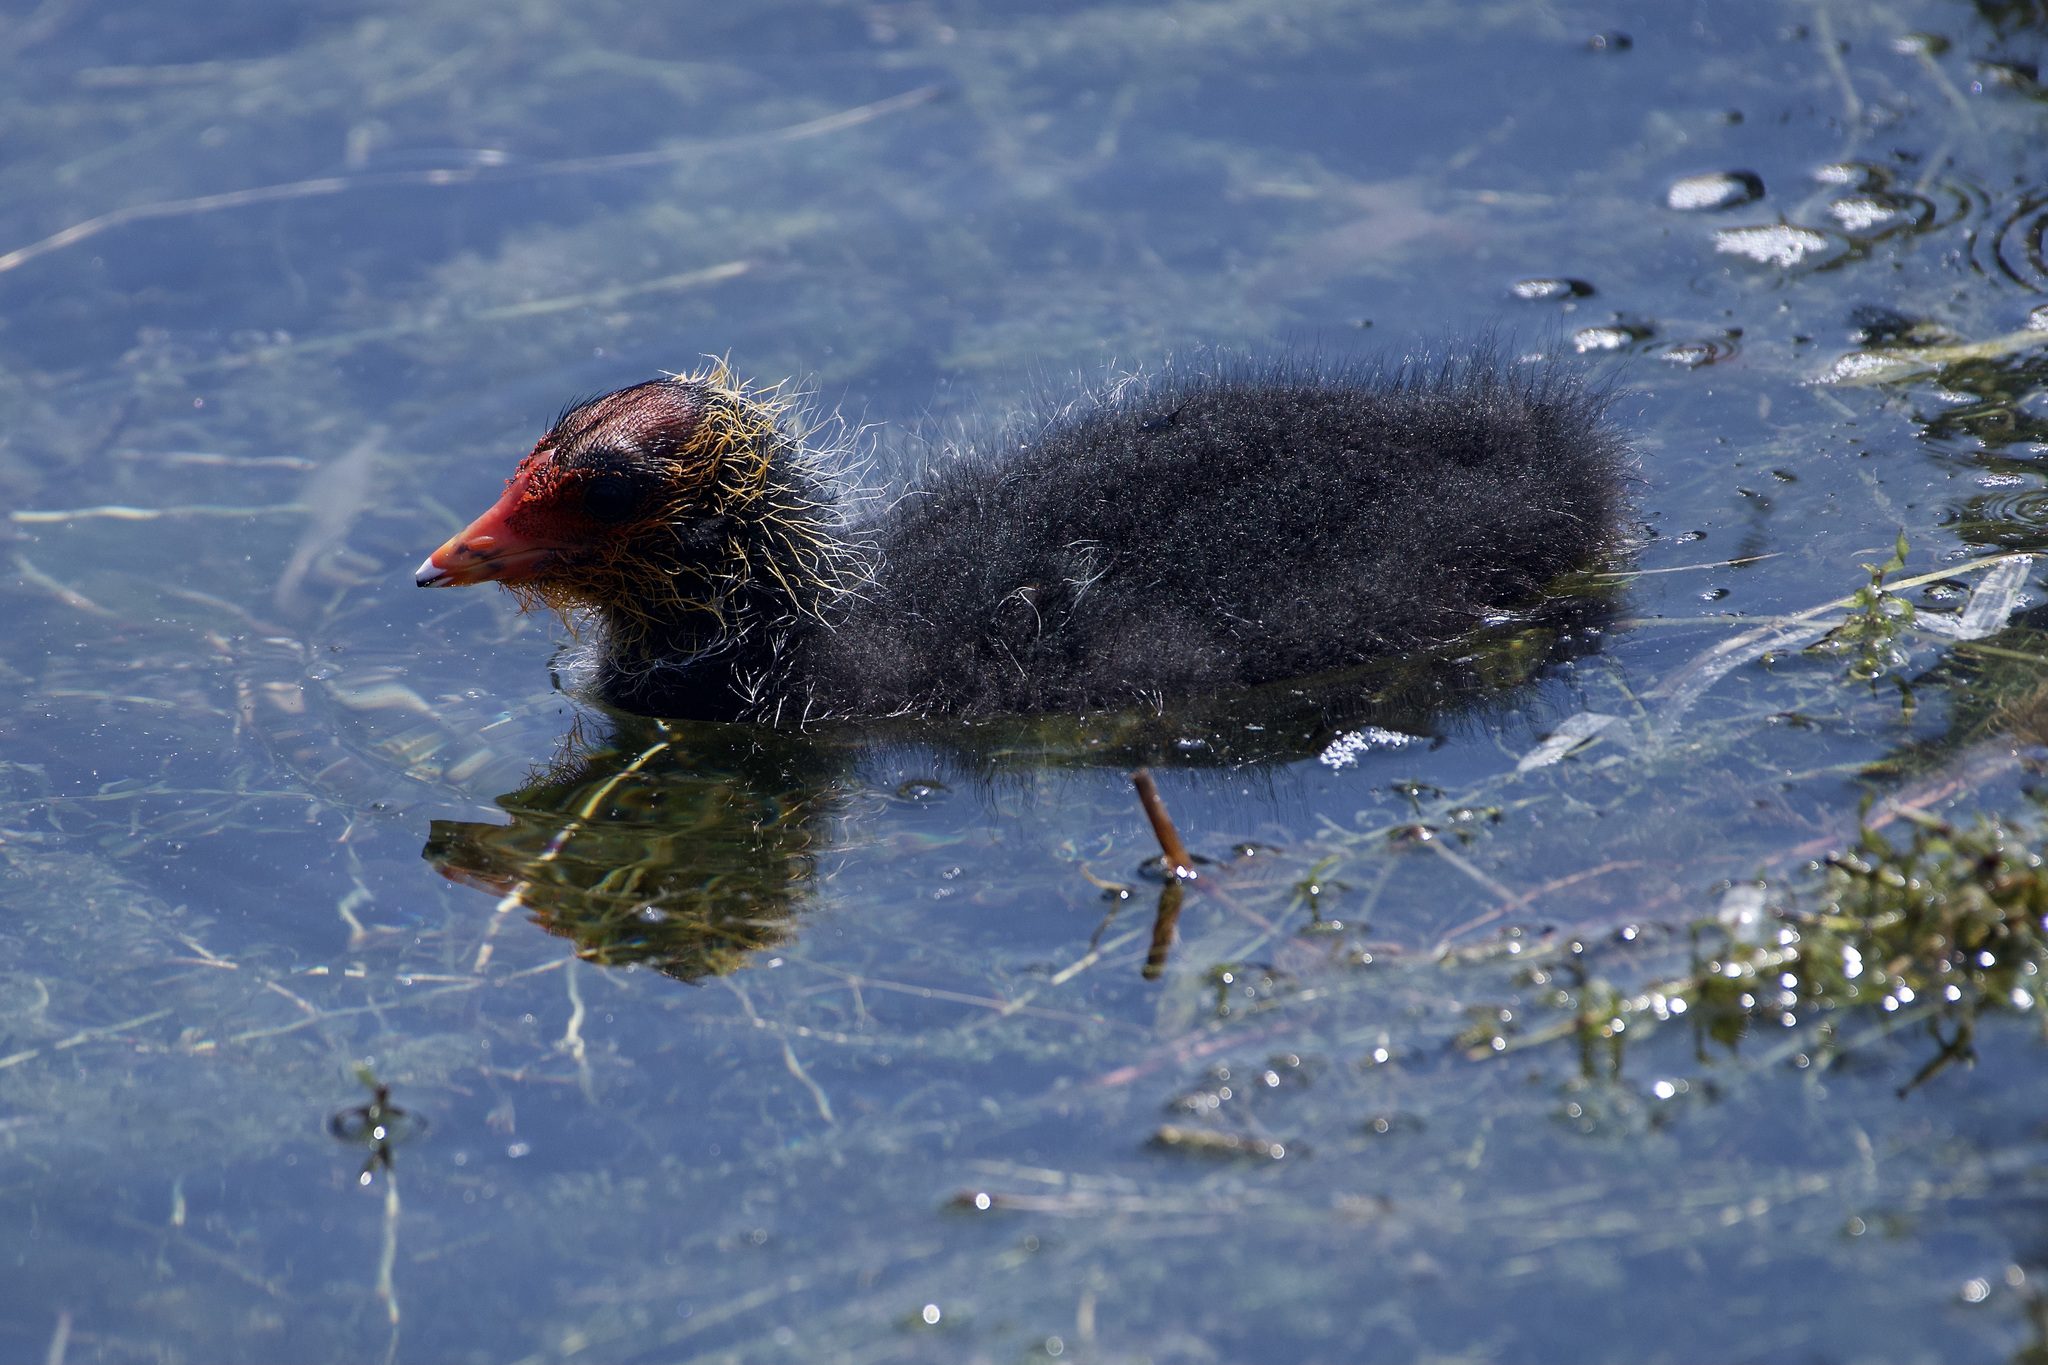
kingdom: Animalia
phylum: Chordata
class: Aves
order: Gruiformes
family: Rallidae
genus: Fulica
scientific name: Fulica atra
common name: Eurasian coot
